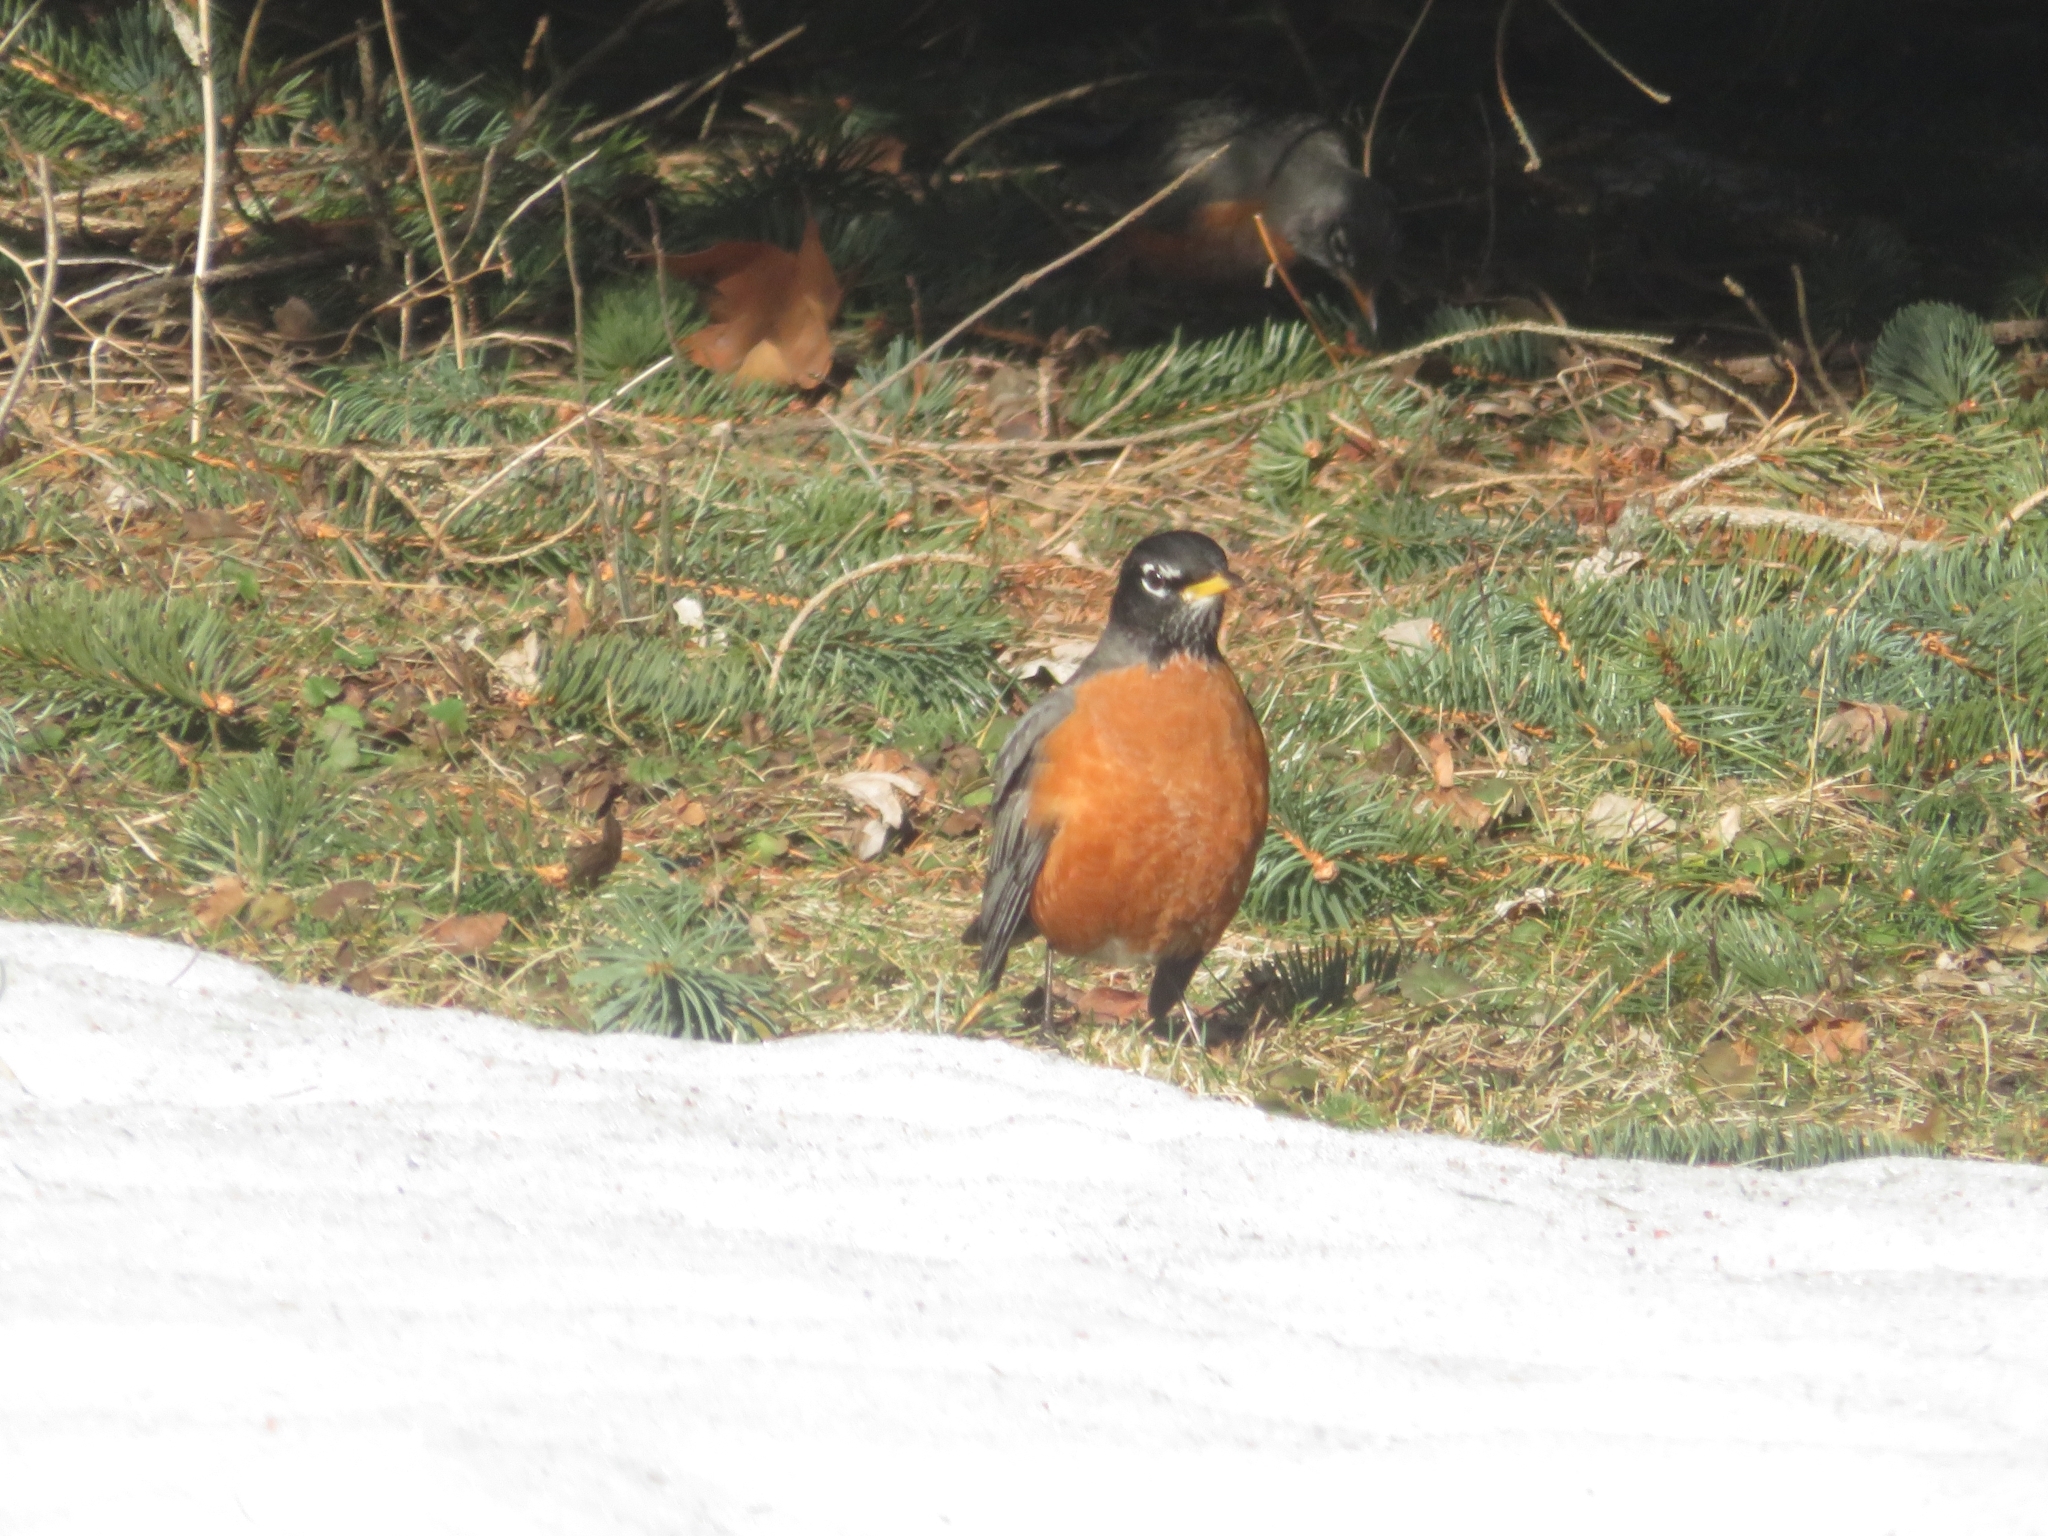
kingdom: Animalia
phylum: Chordata
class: Aves
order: Passeriformes
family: Turdidae
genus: Turdus
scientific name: Turdus migratorius
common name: American robin
